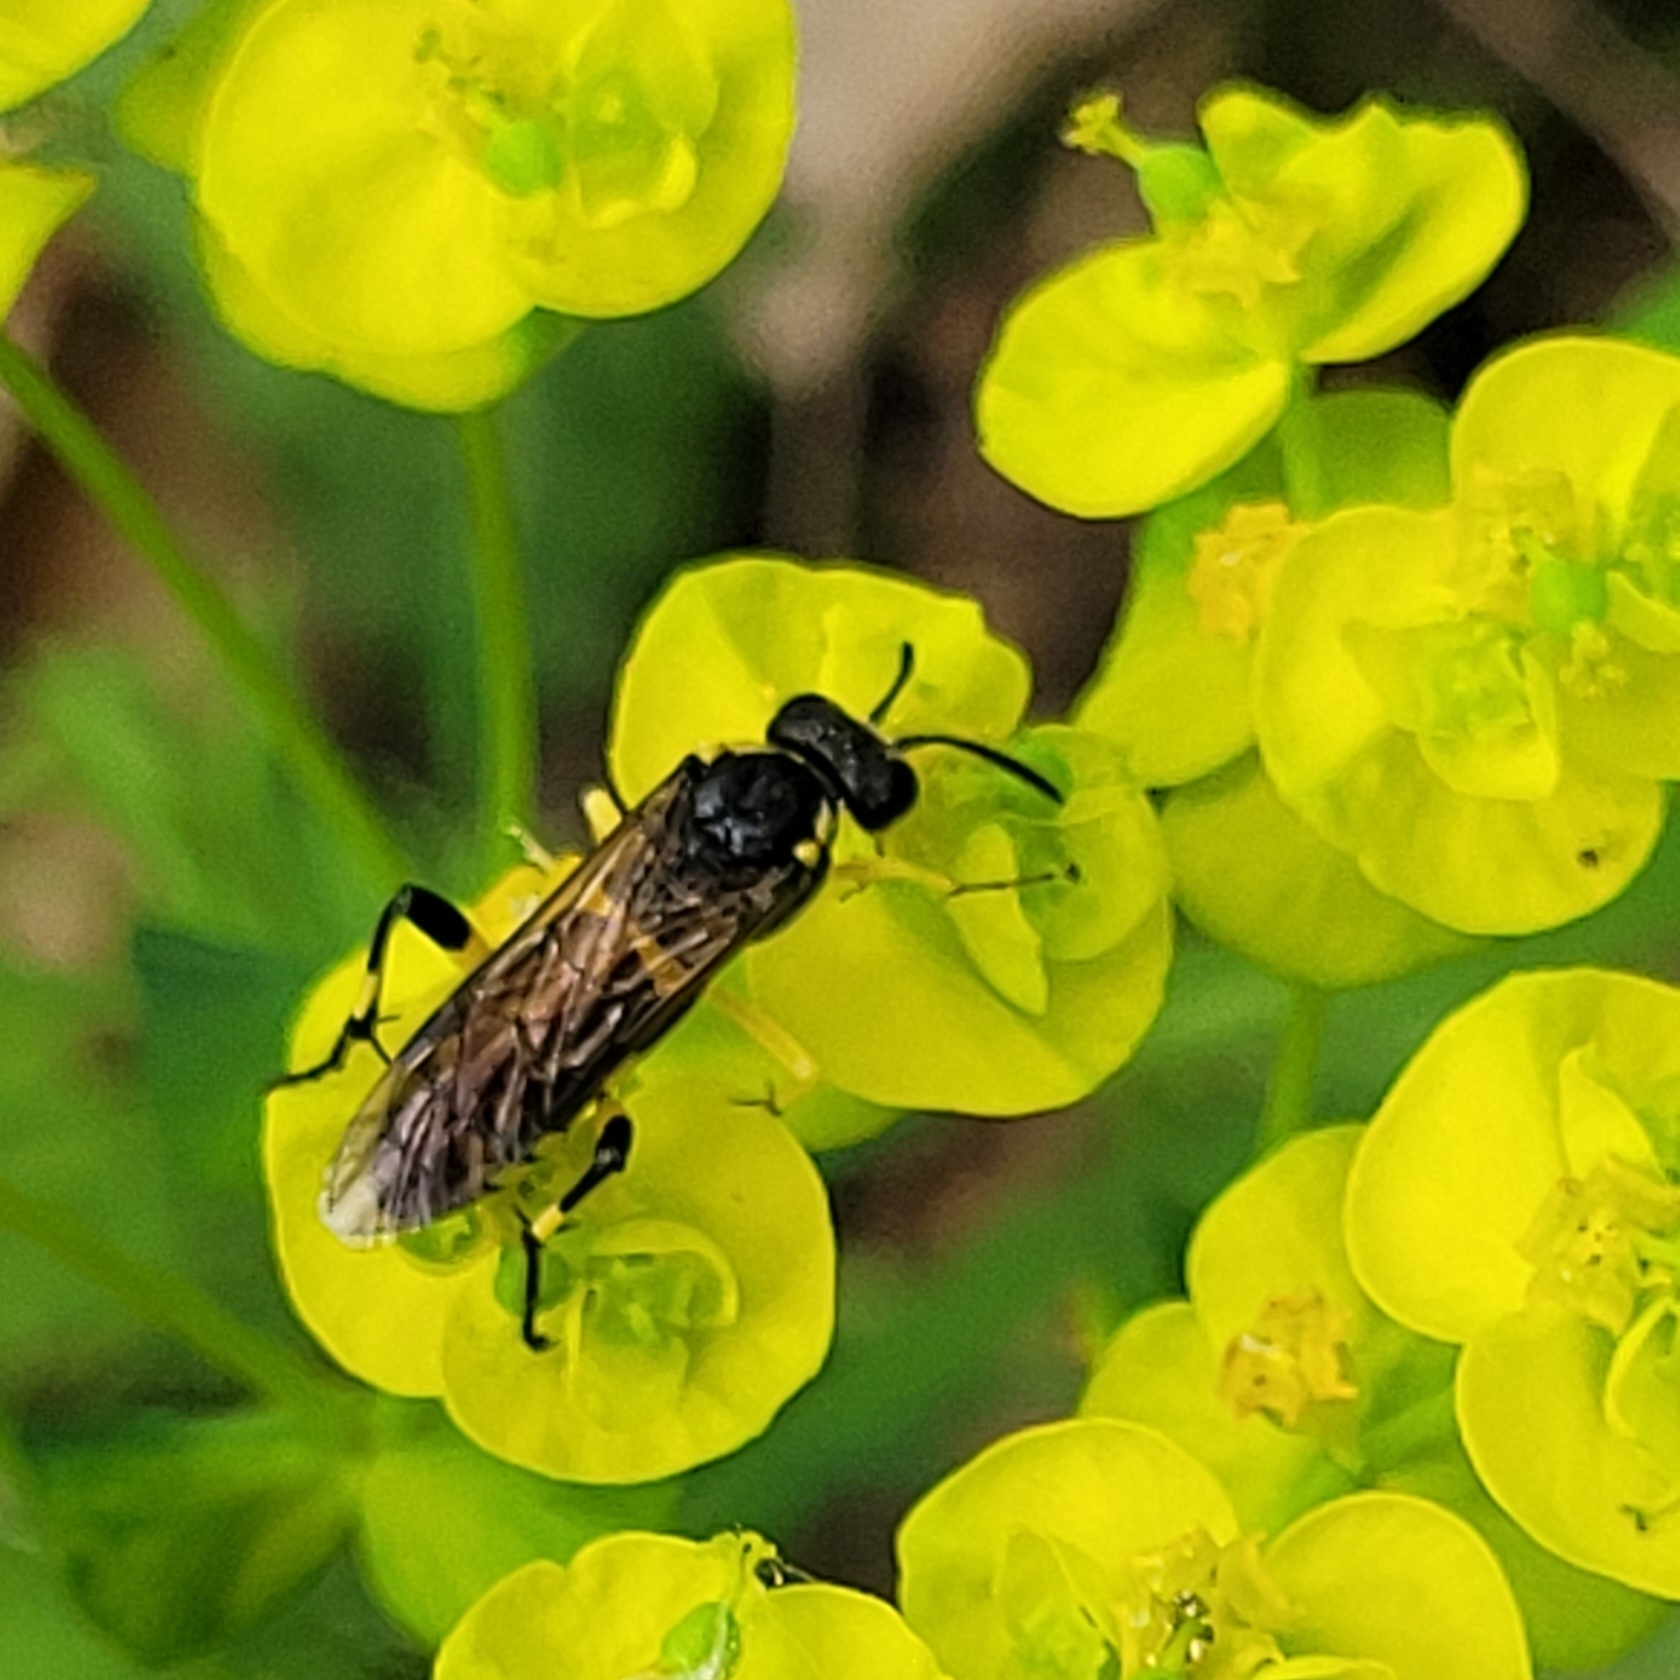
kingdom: Animalia
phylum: Arthropoda
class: Insecta
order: Hymenoptera
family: Tenthredinidae
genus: Macrophya
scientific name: Macrophya montana
